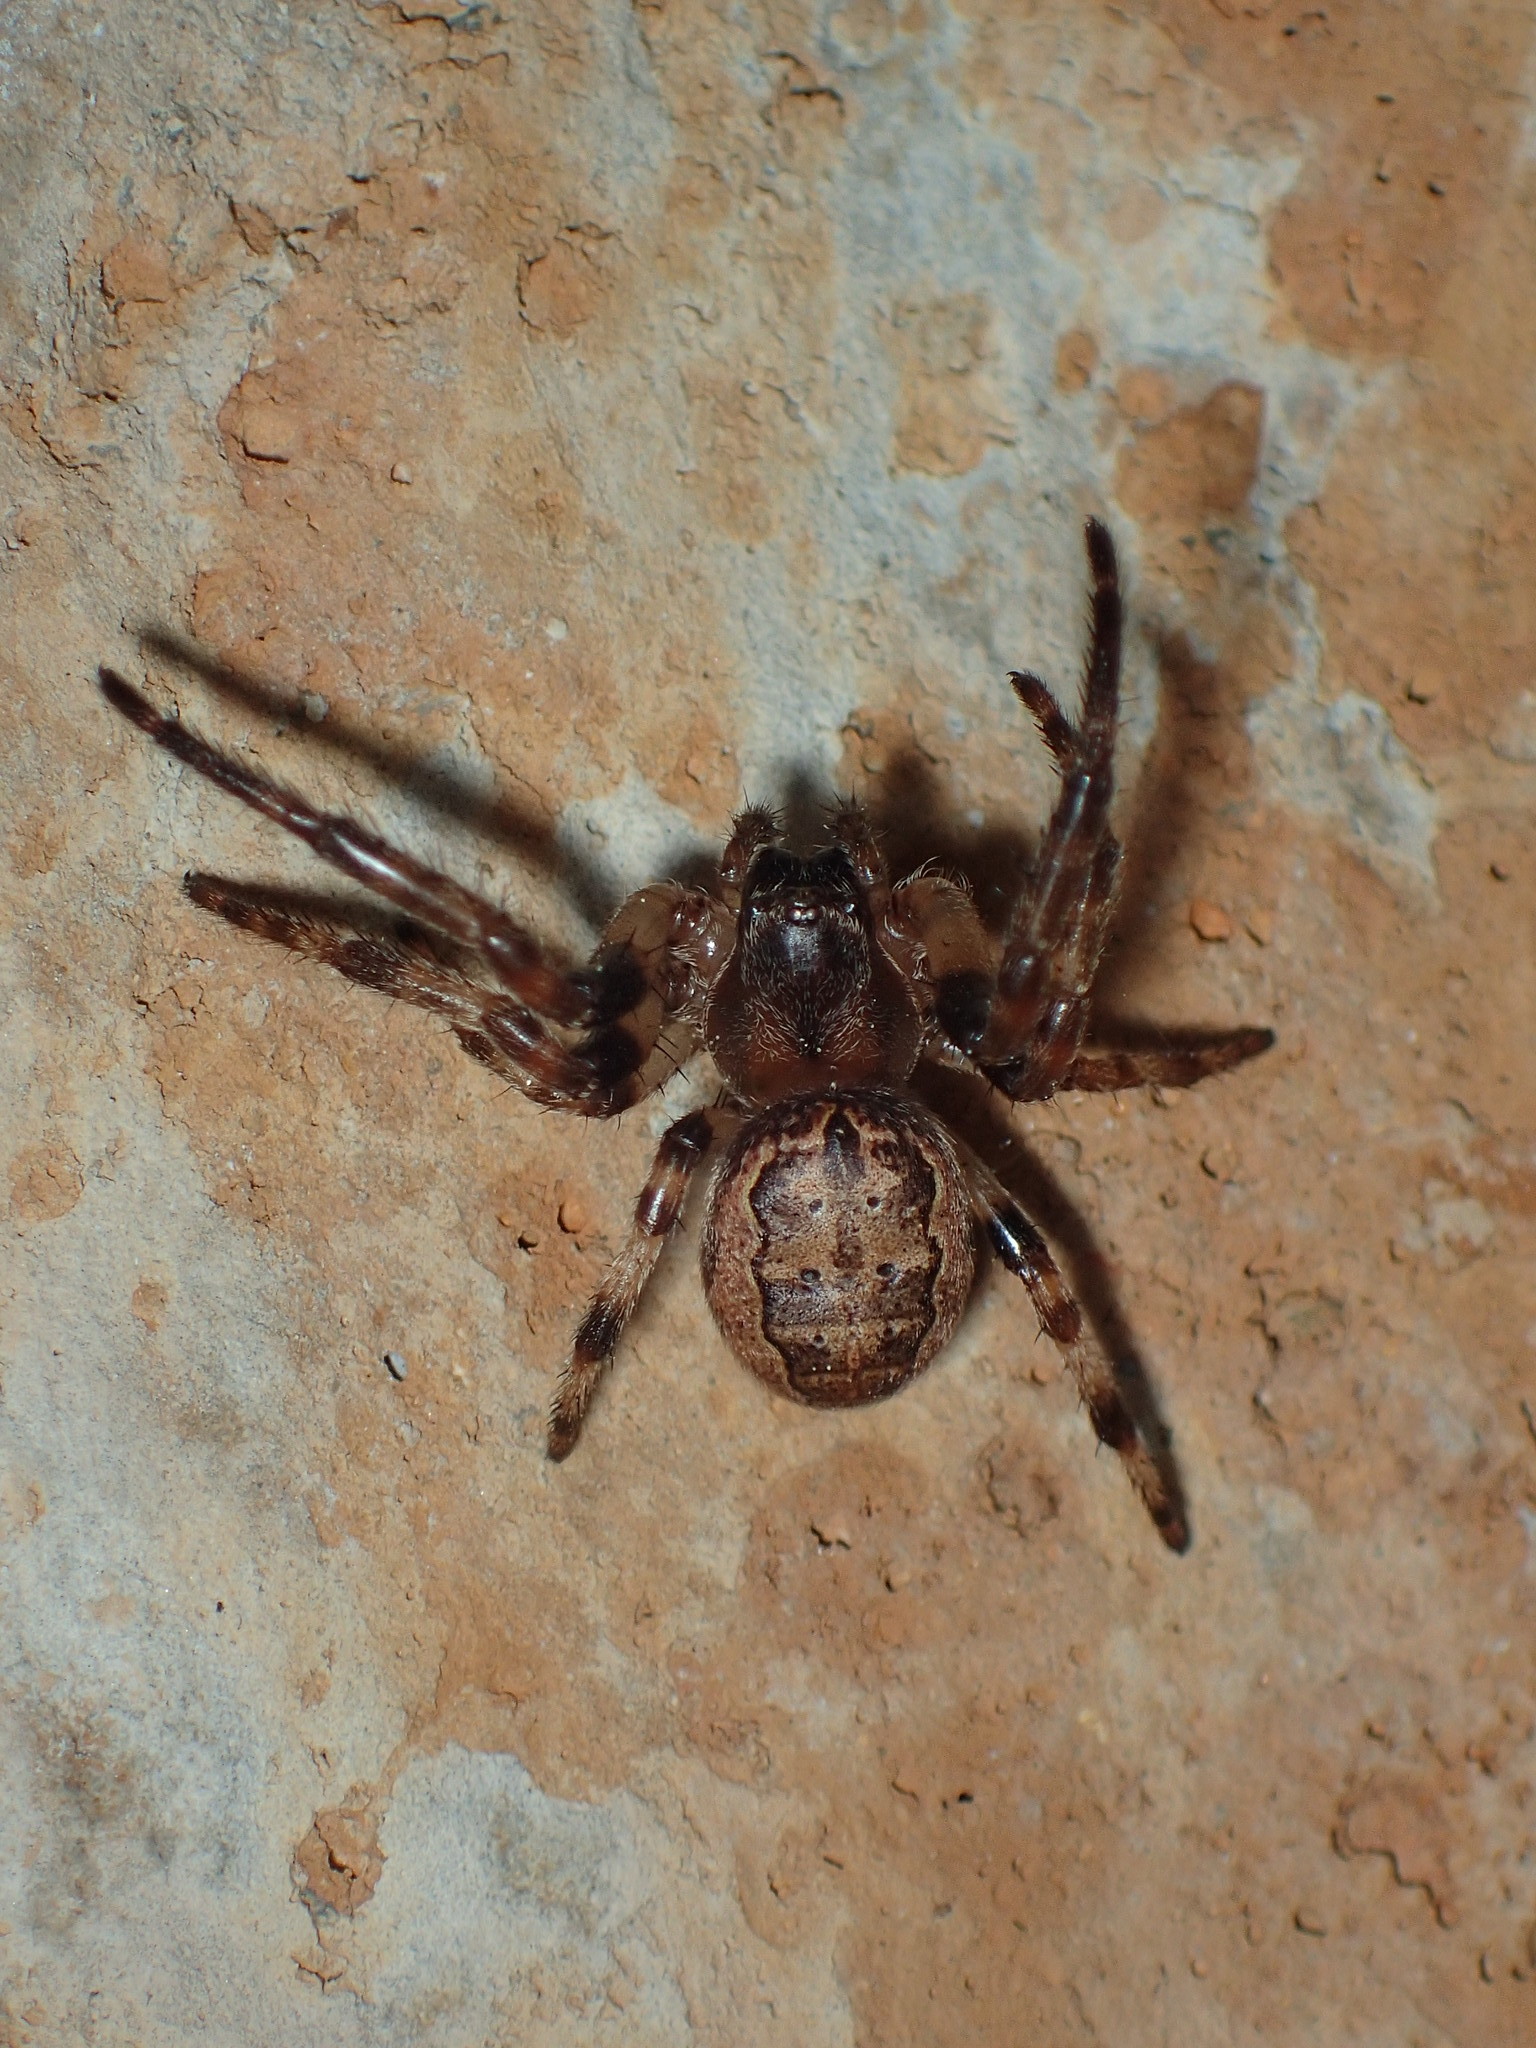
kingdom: Animalia
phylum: Arthropoda
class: Arachnida
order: Araneae
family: Araneidae
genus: Larinioides
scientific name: Larinioides cornutus
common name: Furrow orbweaver
